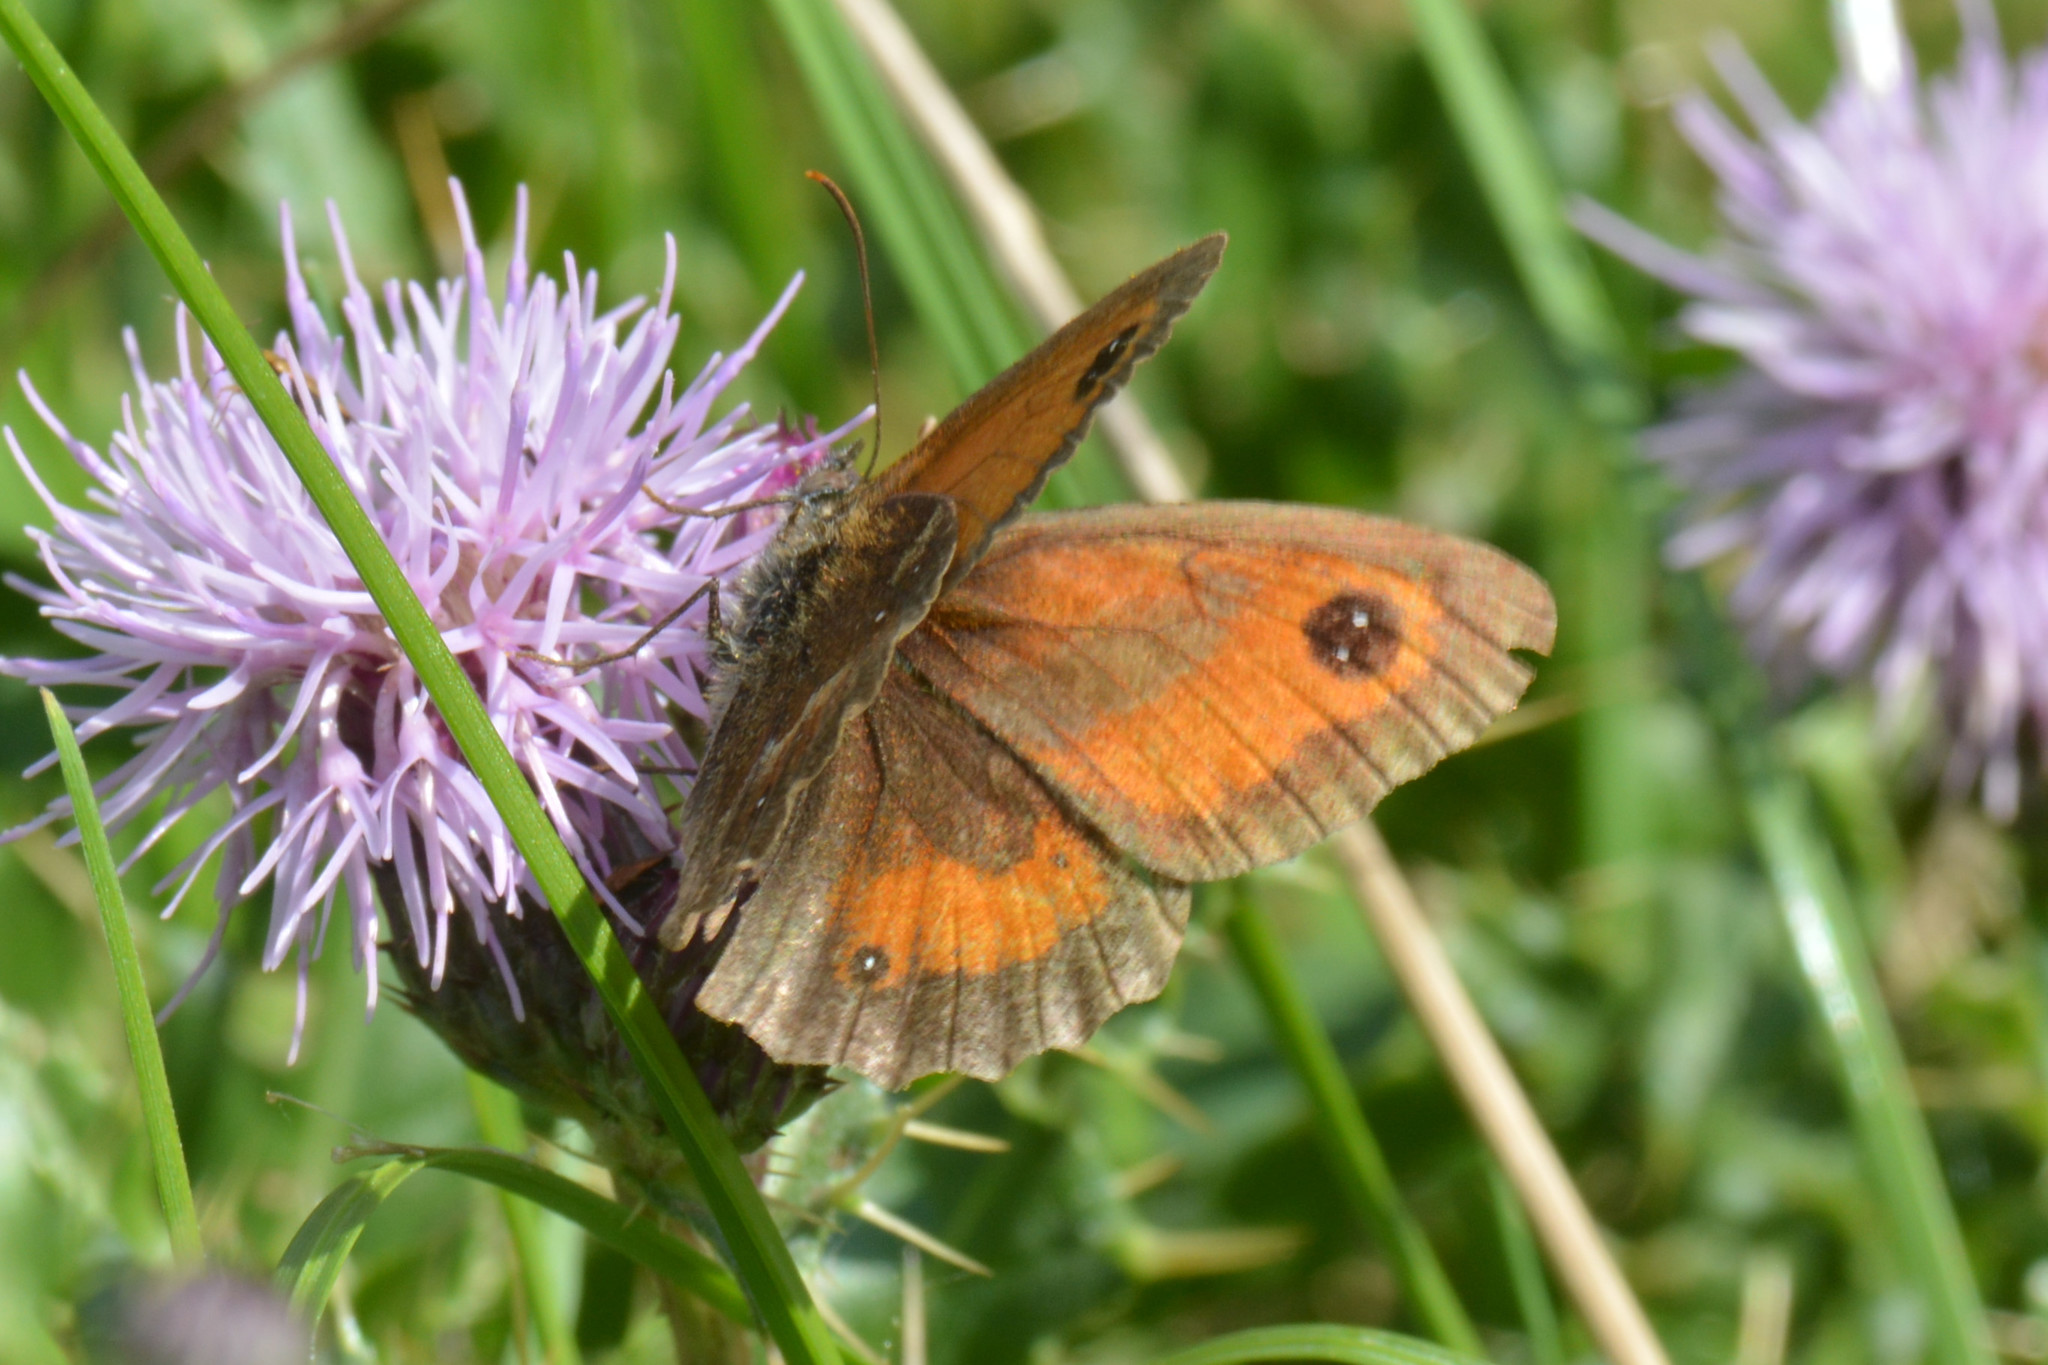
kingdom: Animalia
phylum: Arthropoda
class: Insecta
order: Lepidoptera
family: Nymphalidae
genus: Pyronia
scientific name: Pyronia tithonus
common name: Gatekeeper
